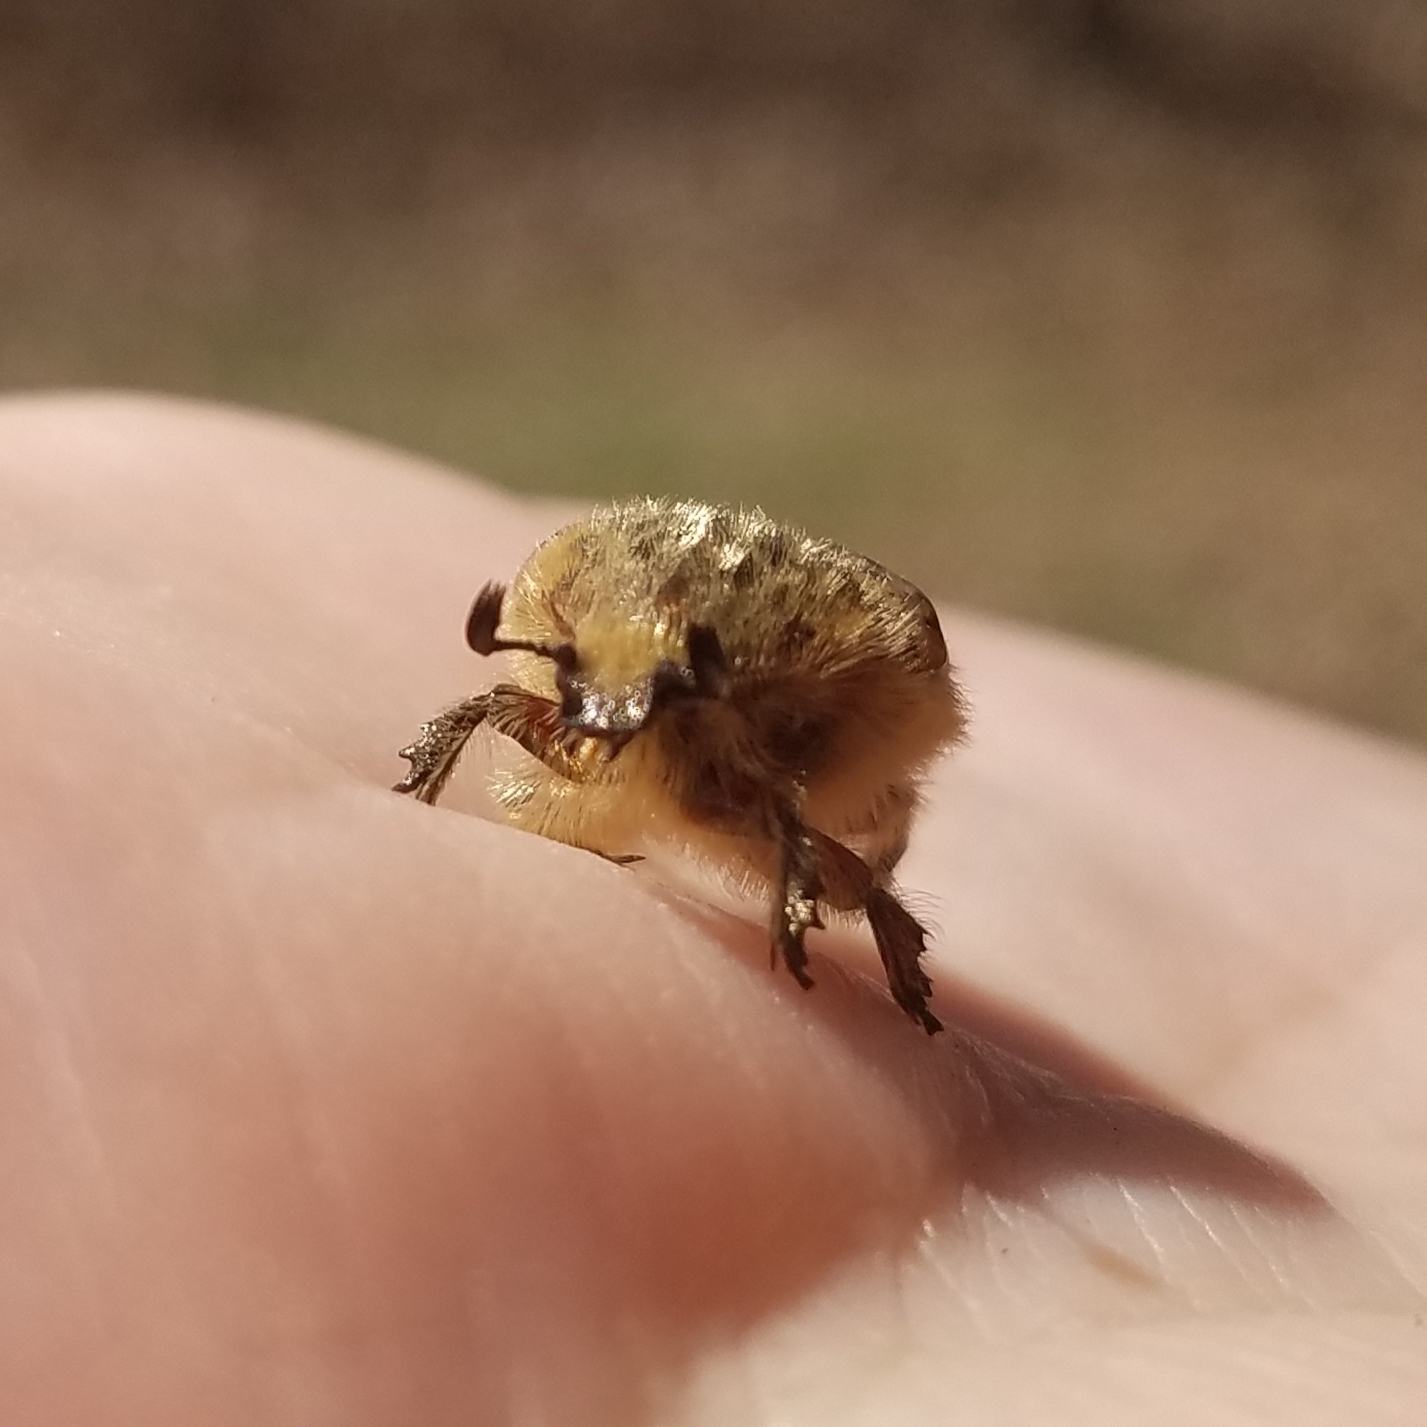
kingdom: Animalia
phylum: Arthropoda
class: Insecta
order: Coleoptera
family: Scarabaeidae
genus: Euphoria
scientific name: Euphoria inda
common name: Bumble flower beetle
